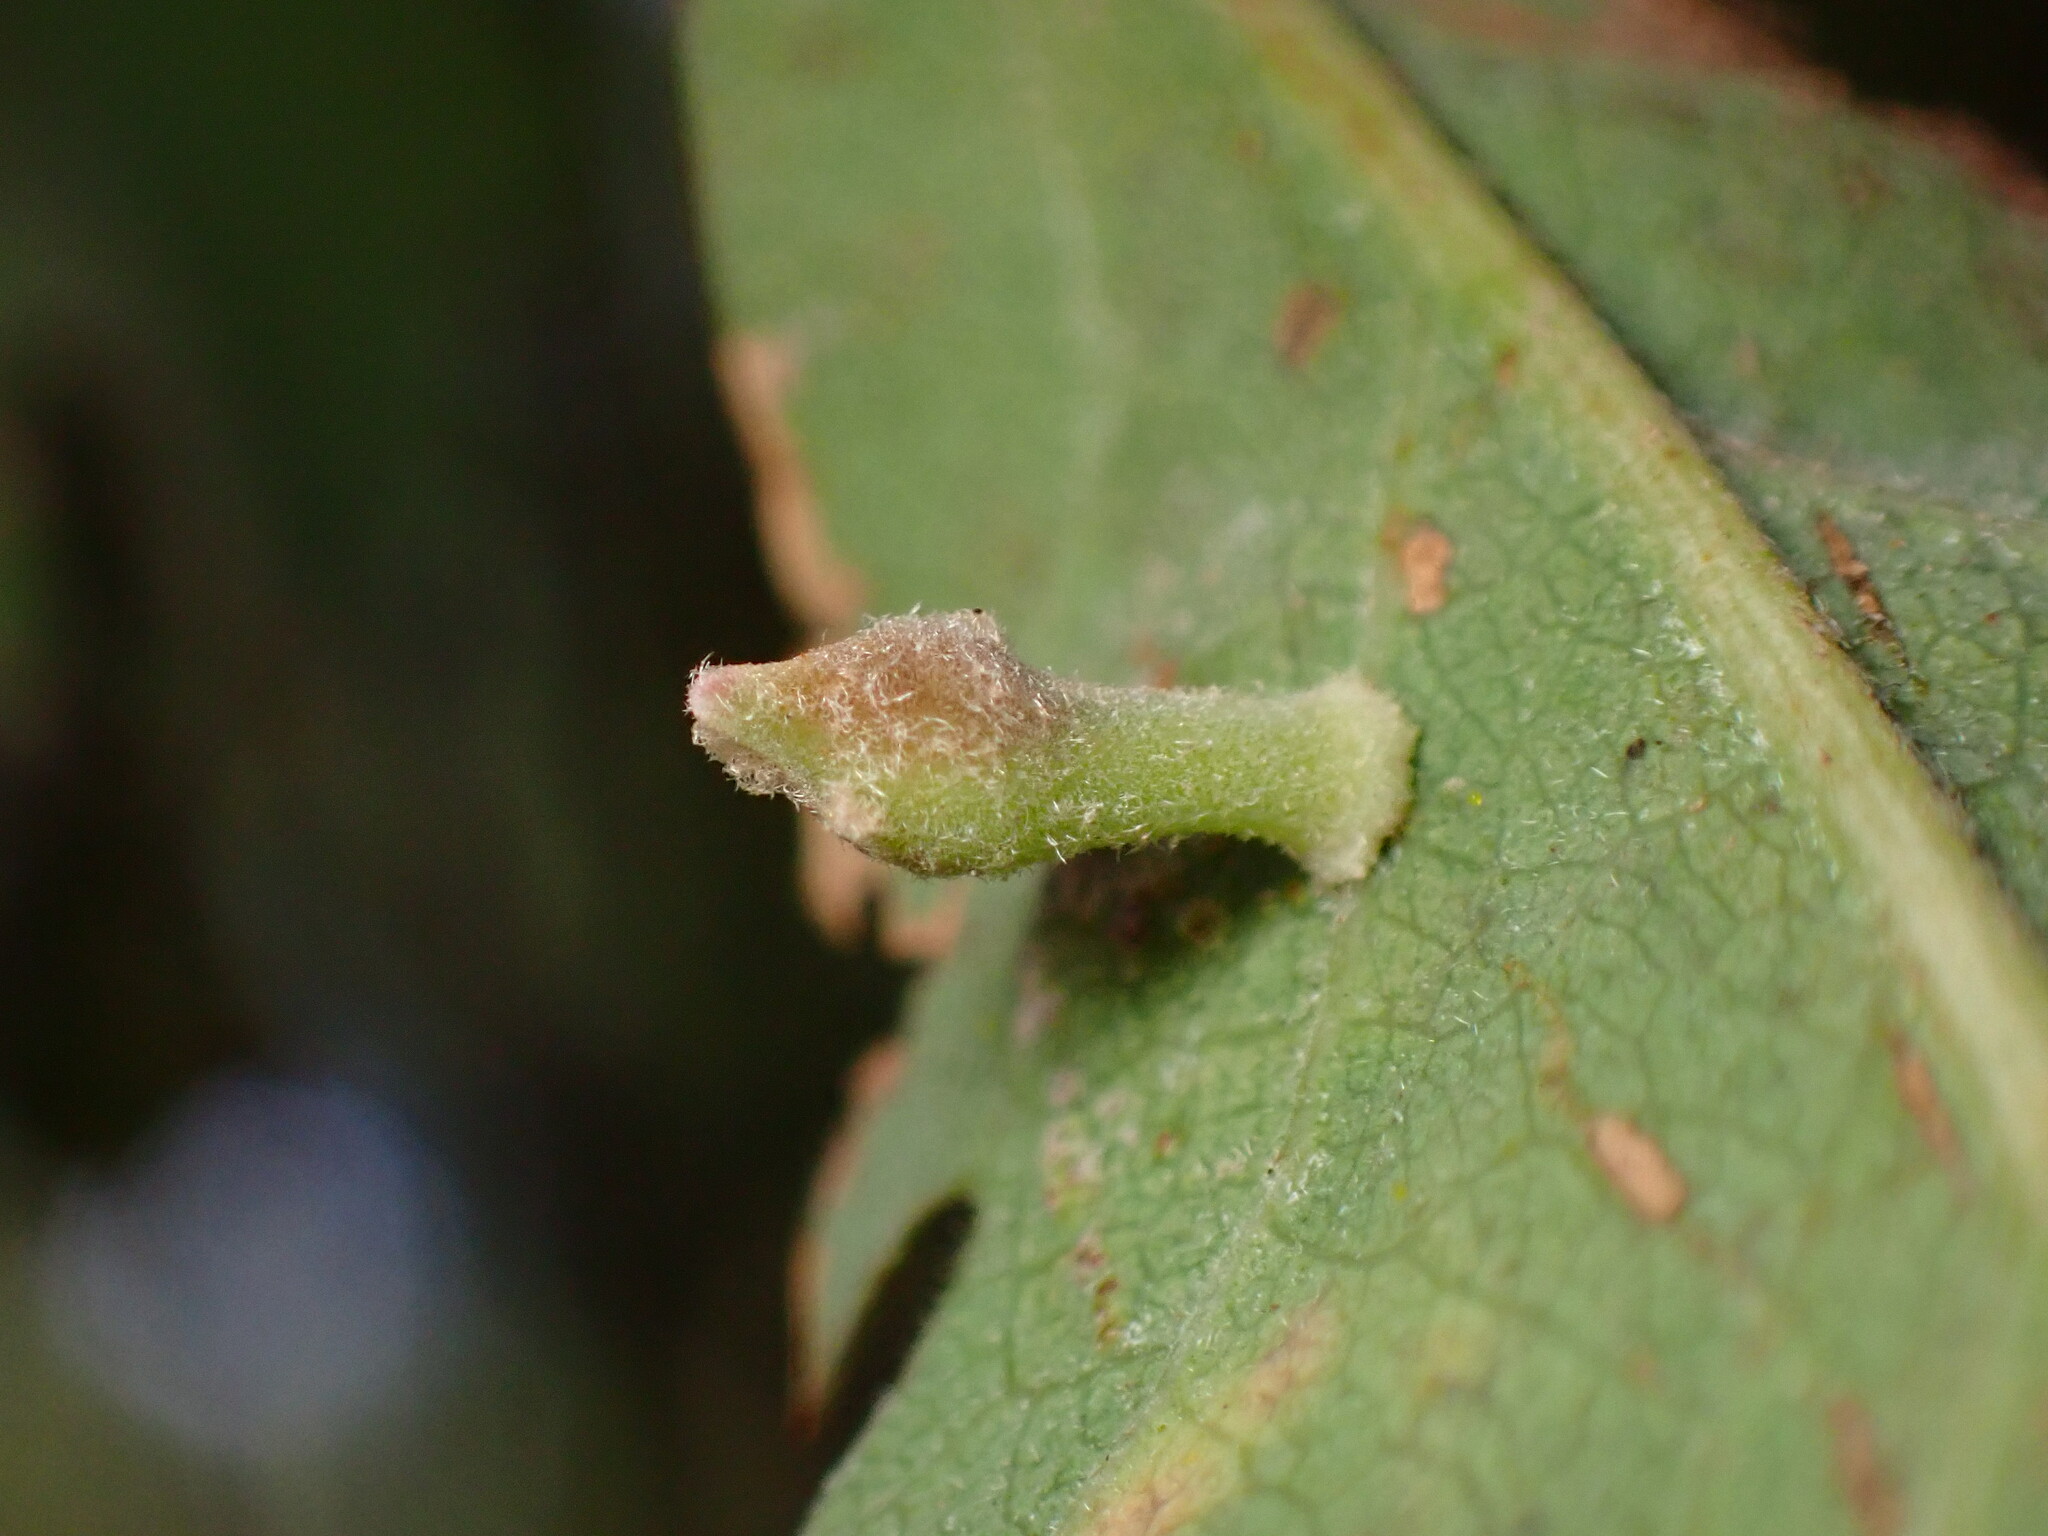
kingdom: Animalia
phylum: Arthropoda
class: Insecta
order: Hymenoptera
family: Cynipidae
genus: Atrusca
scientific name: Atrusca
